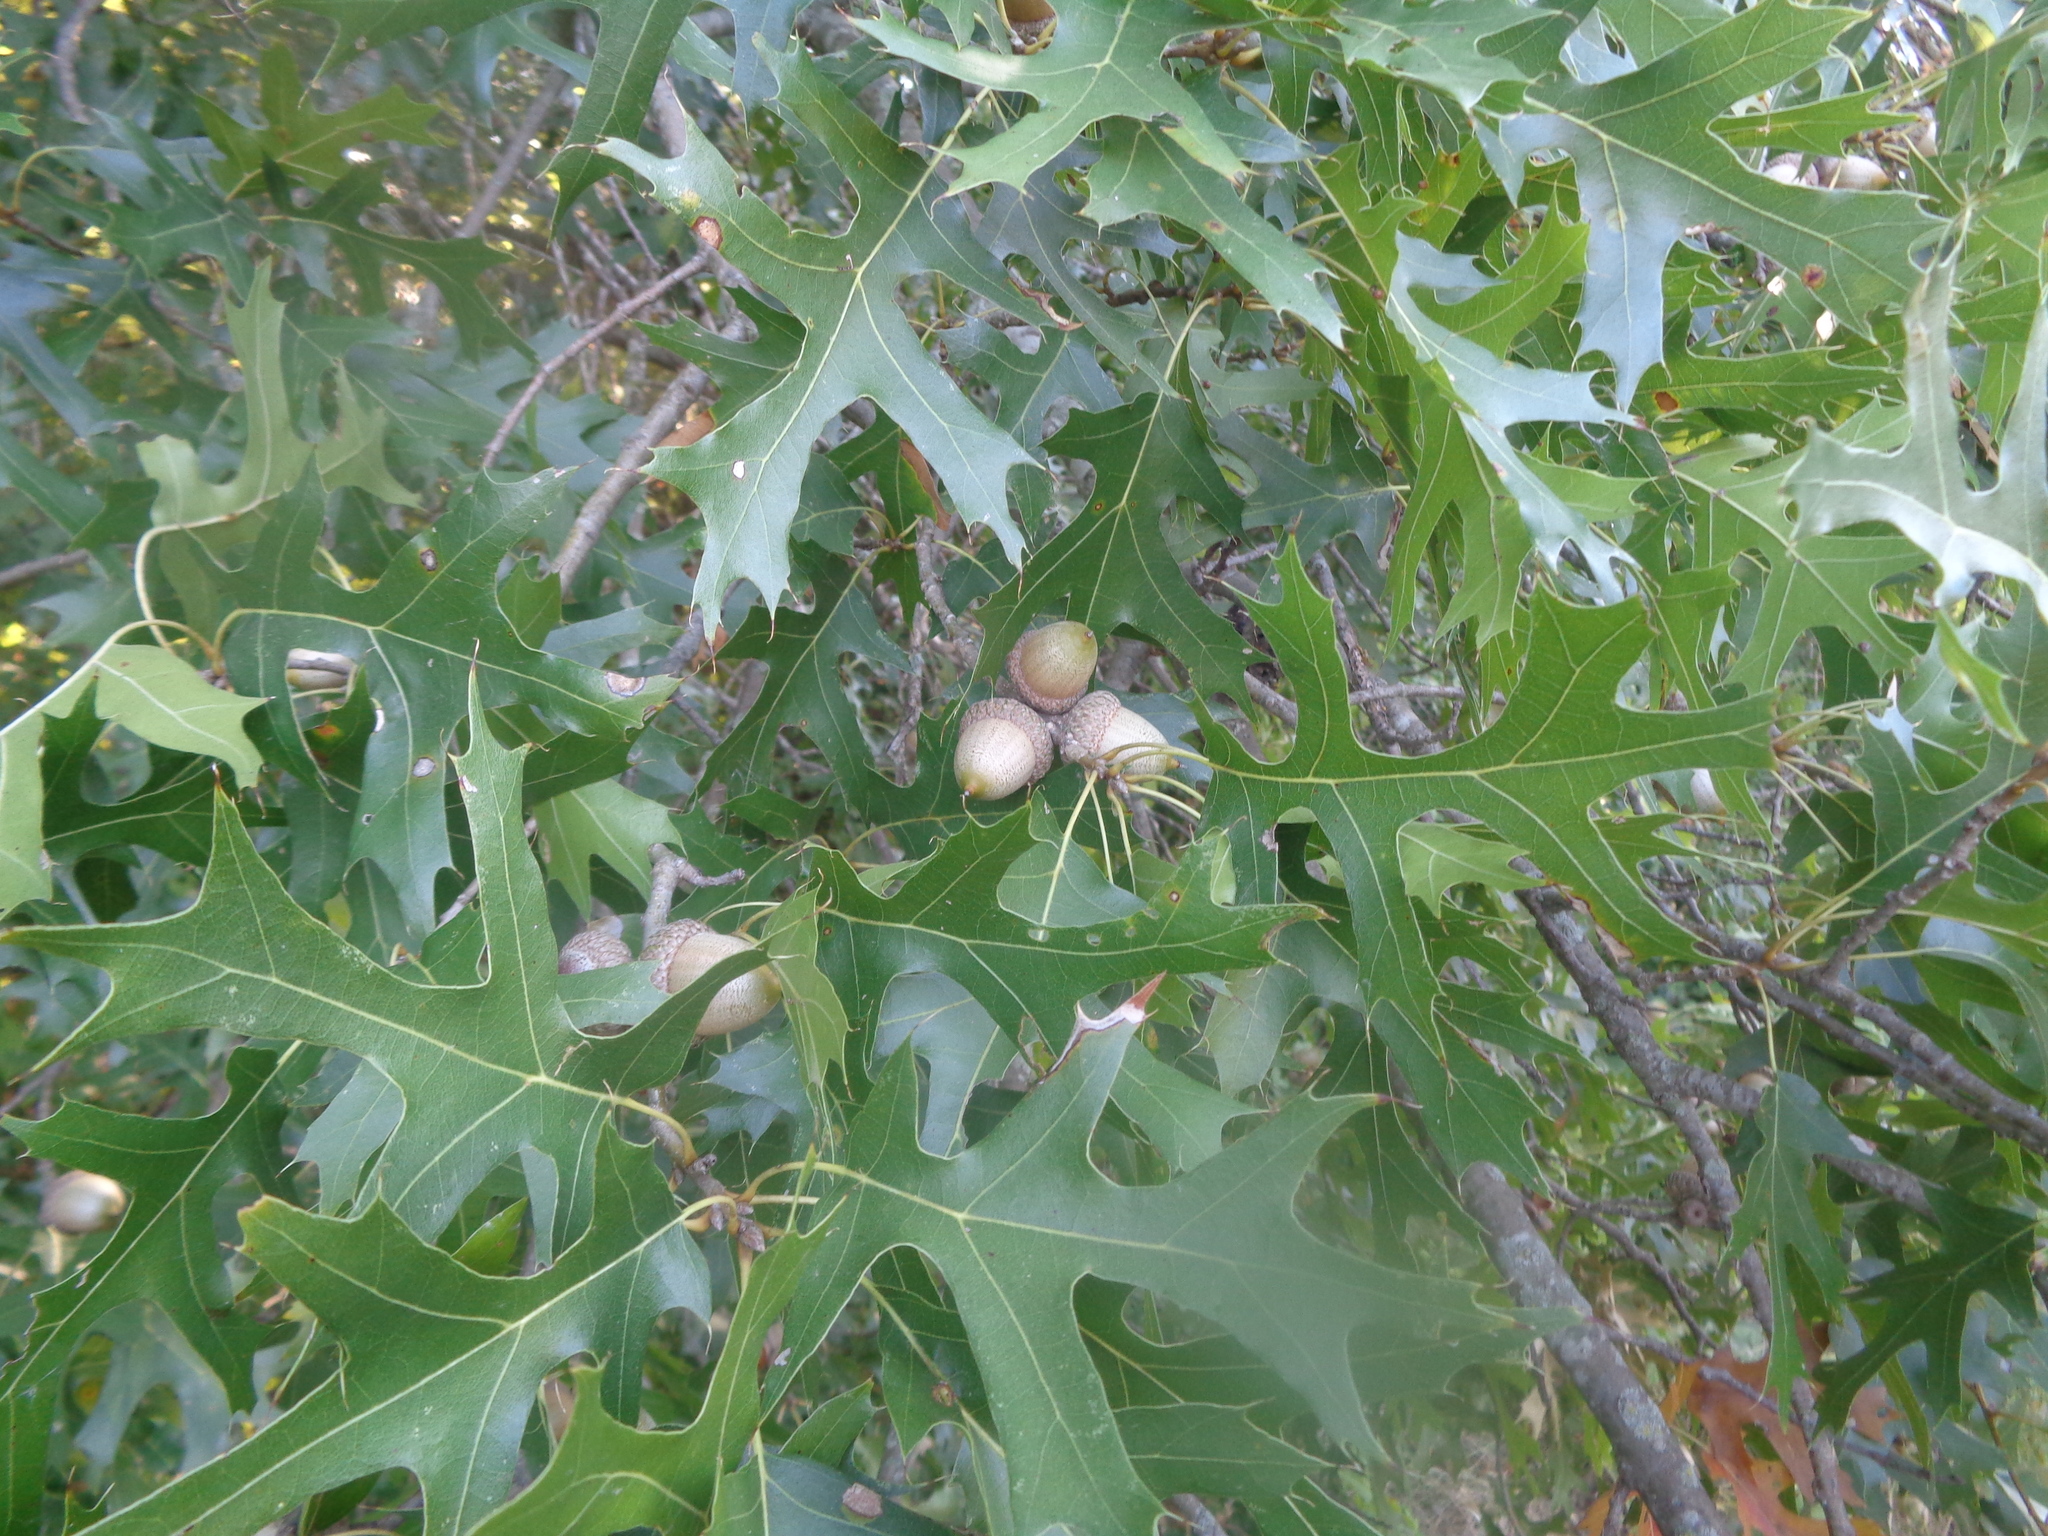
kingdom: Plantae
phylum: Tracheophyta
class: Magnoliopsida
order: Fagales
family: Fagaceae
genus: Quercus
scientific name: Quercus shumardii
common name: Shumard oak
